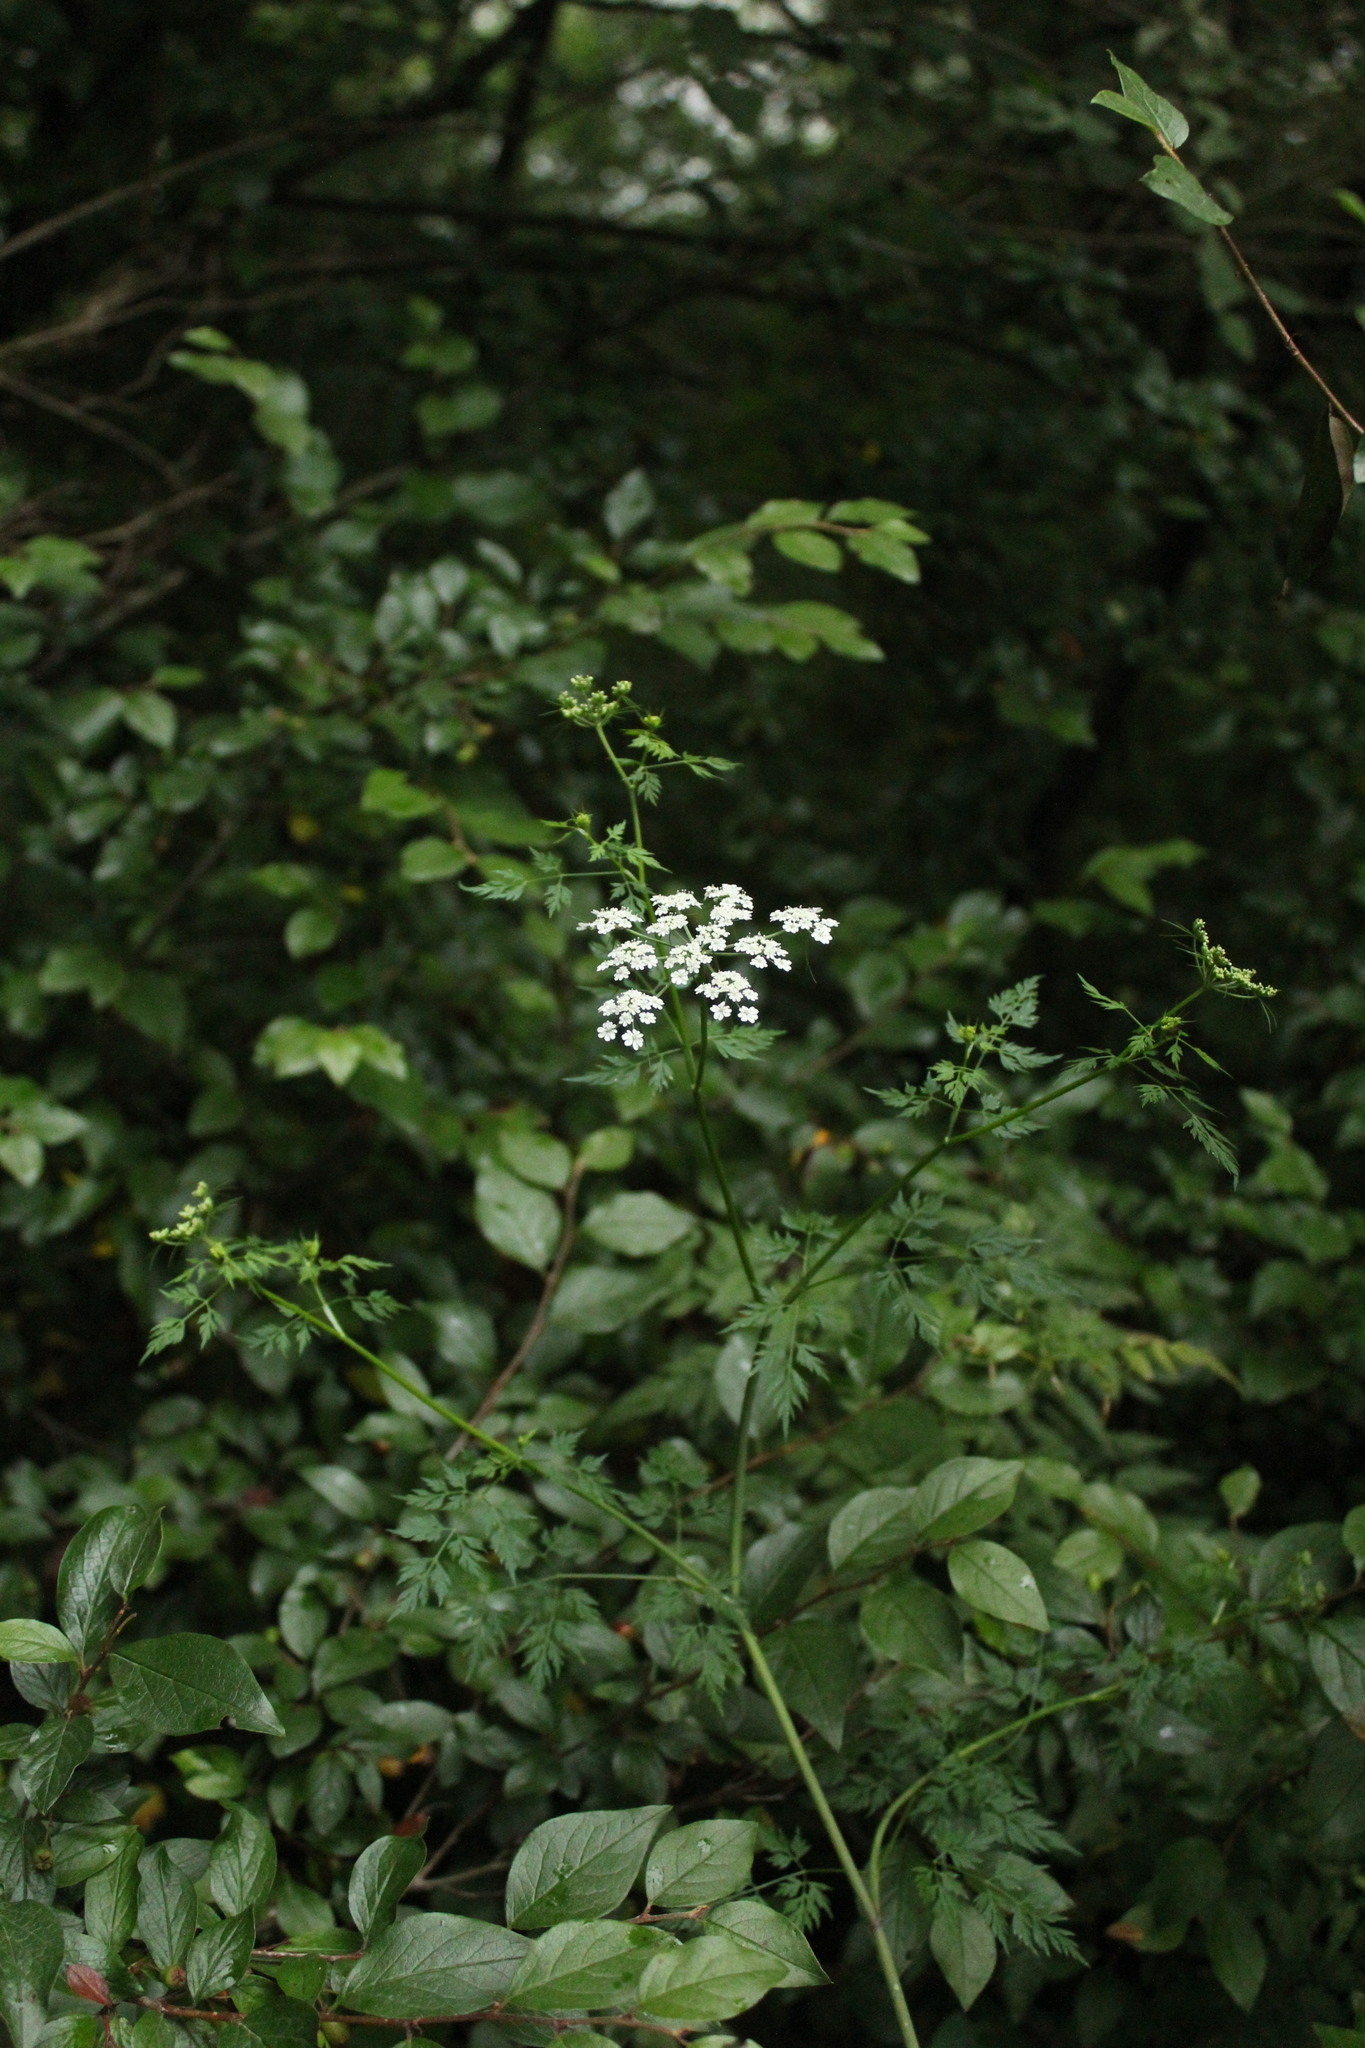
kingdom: Plantae
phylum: Tracheophyta
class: Magnoliopsida
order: Apiales
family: Apiaceae
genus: Aethusa
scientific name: Aethusa cynapium
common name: Fool's parsley
